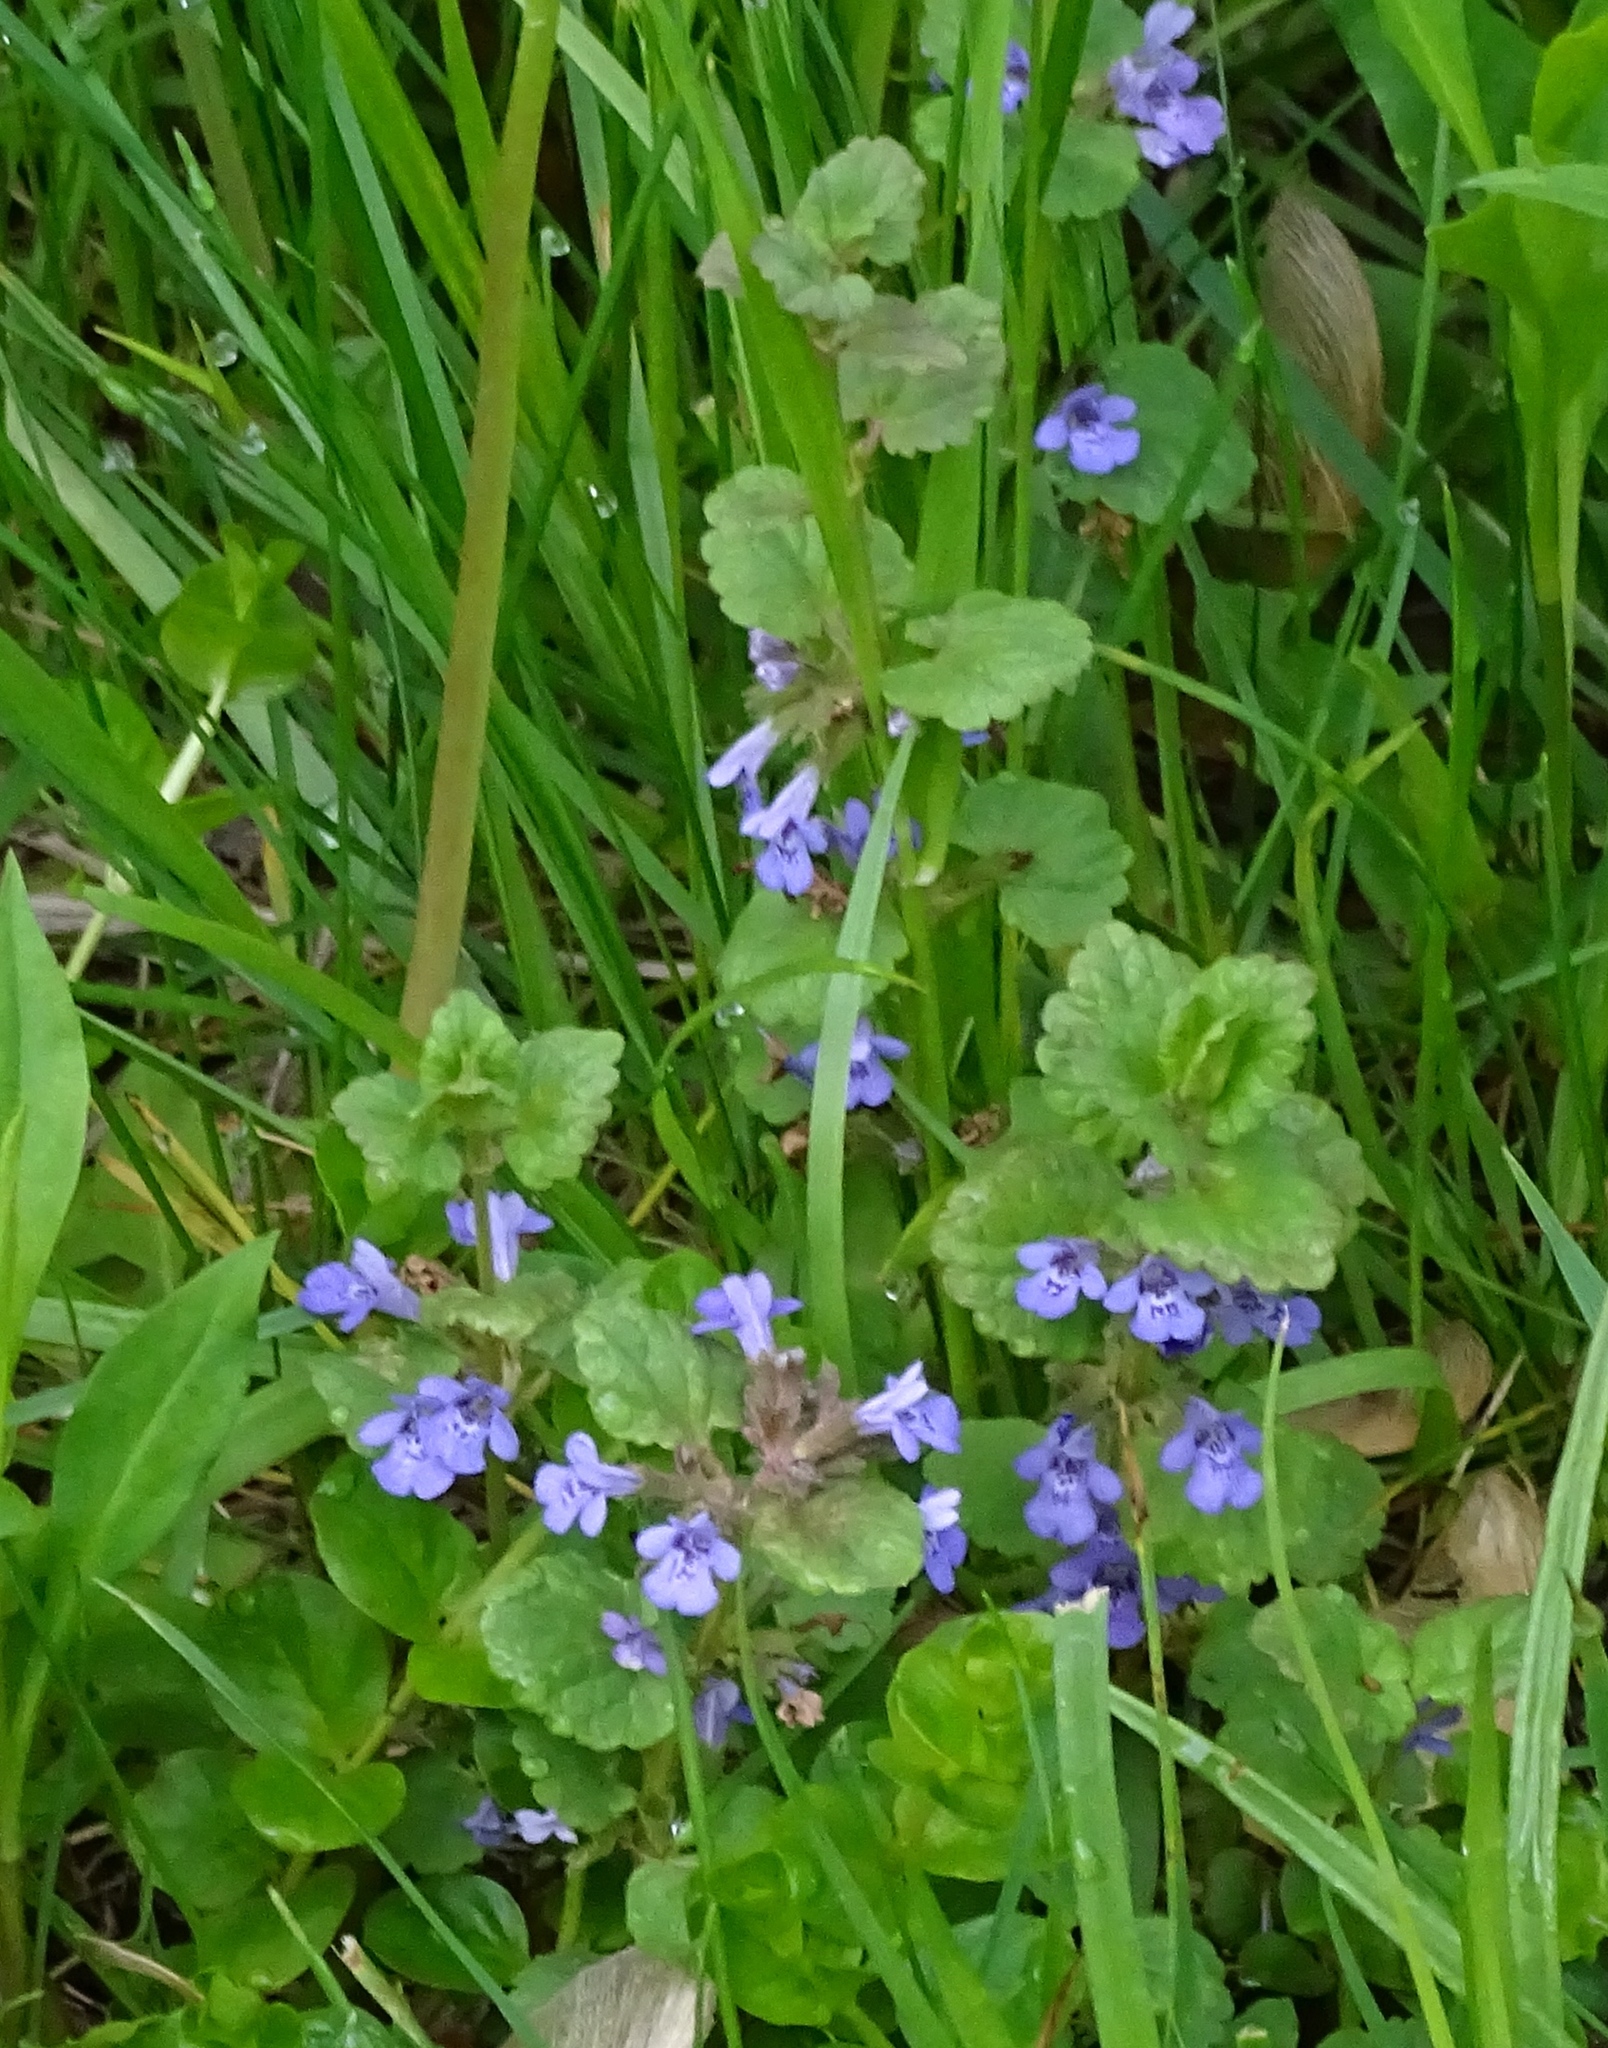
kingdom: Plantae
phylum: Tracheophyta
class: Magnoliopsida
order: Lamiales
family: Lamiaceae
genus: Glechoma
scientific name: Glechoma hederacea
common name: Ground ivy
